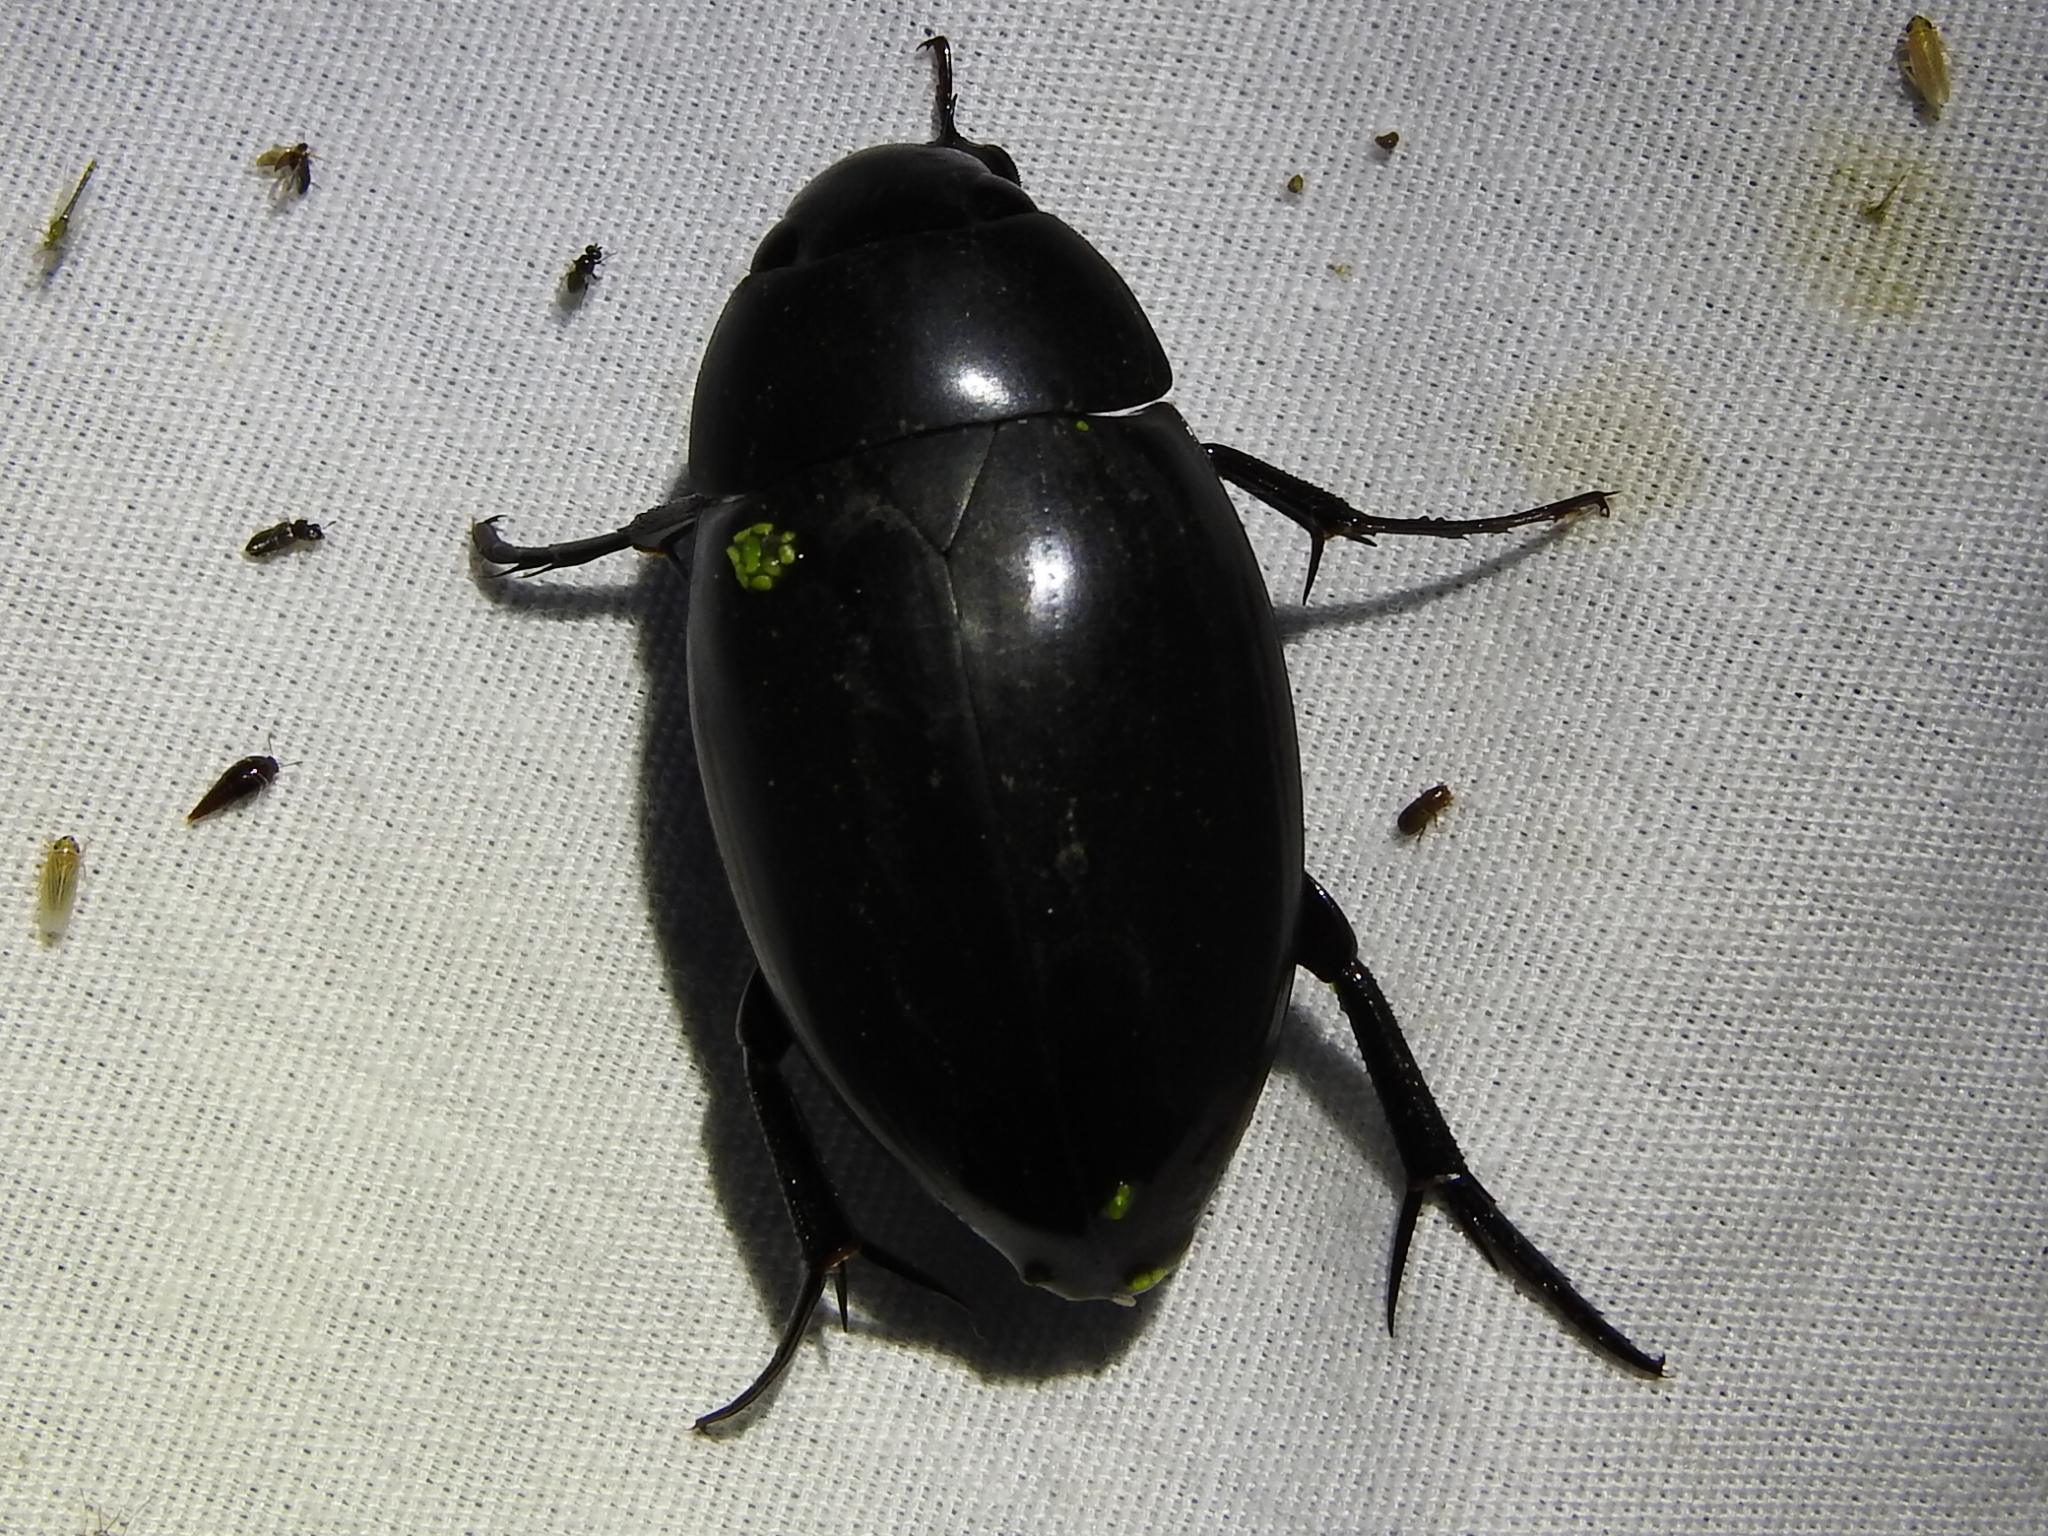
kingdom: Animalia
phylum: Arthropoda
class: Insecta
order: Coleoptera
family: Hydrophilidae
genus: Hydrophilus
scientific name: Hydrophilus ovatus
